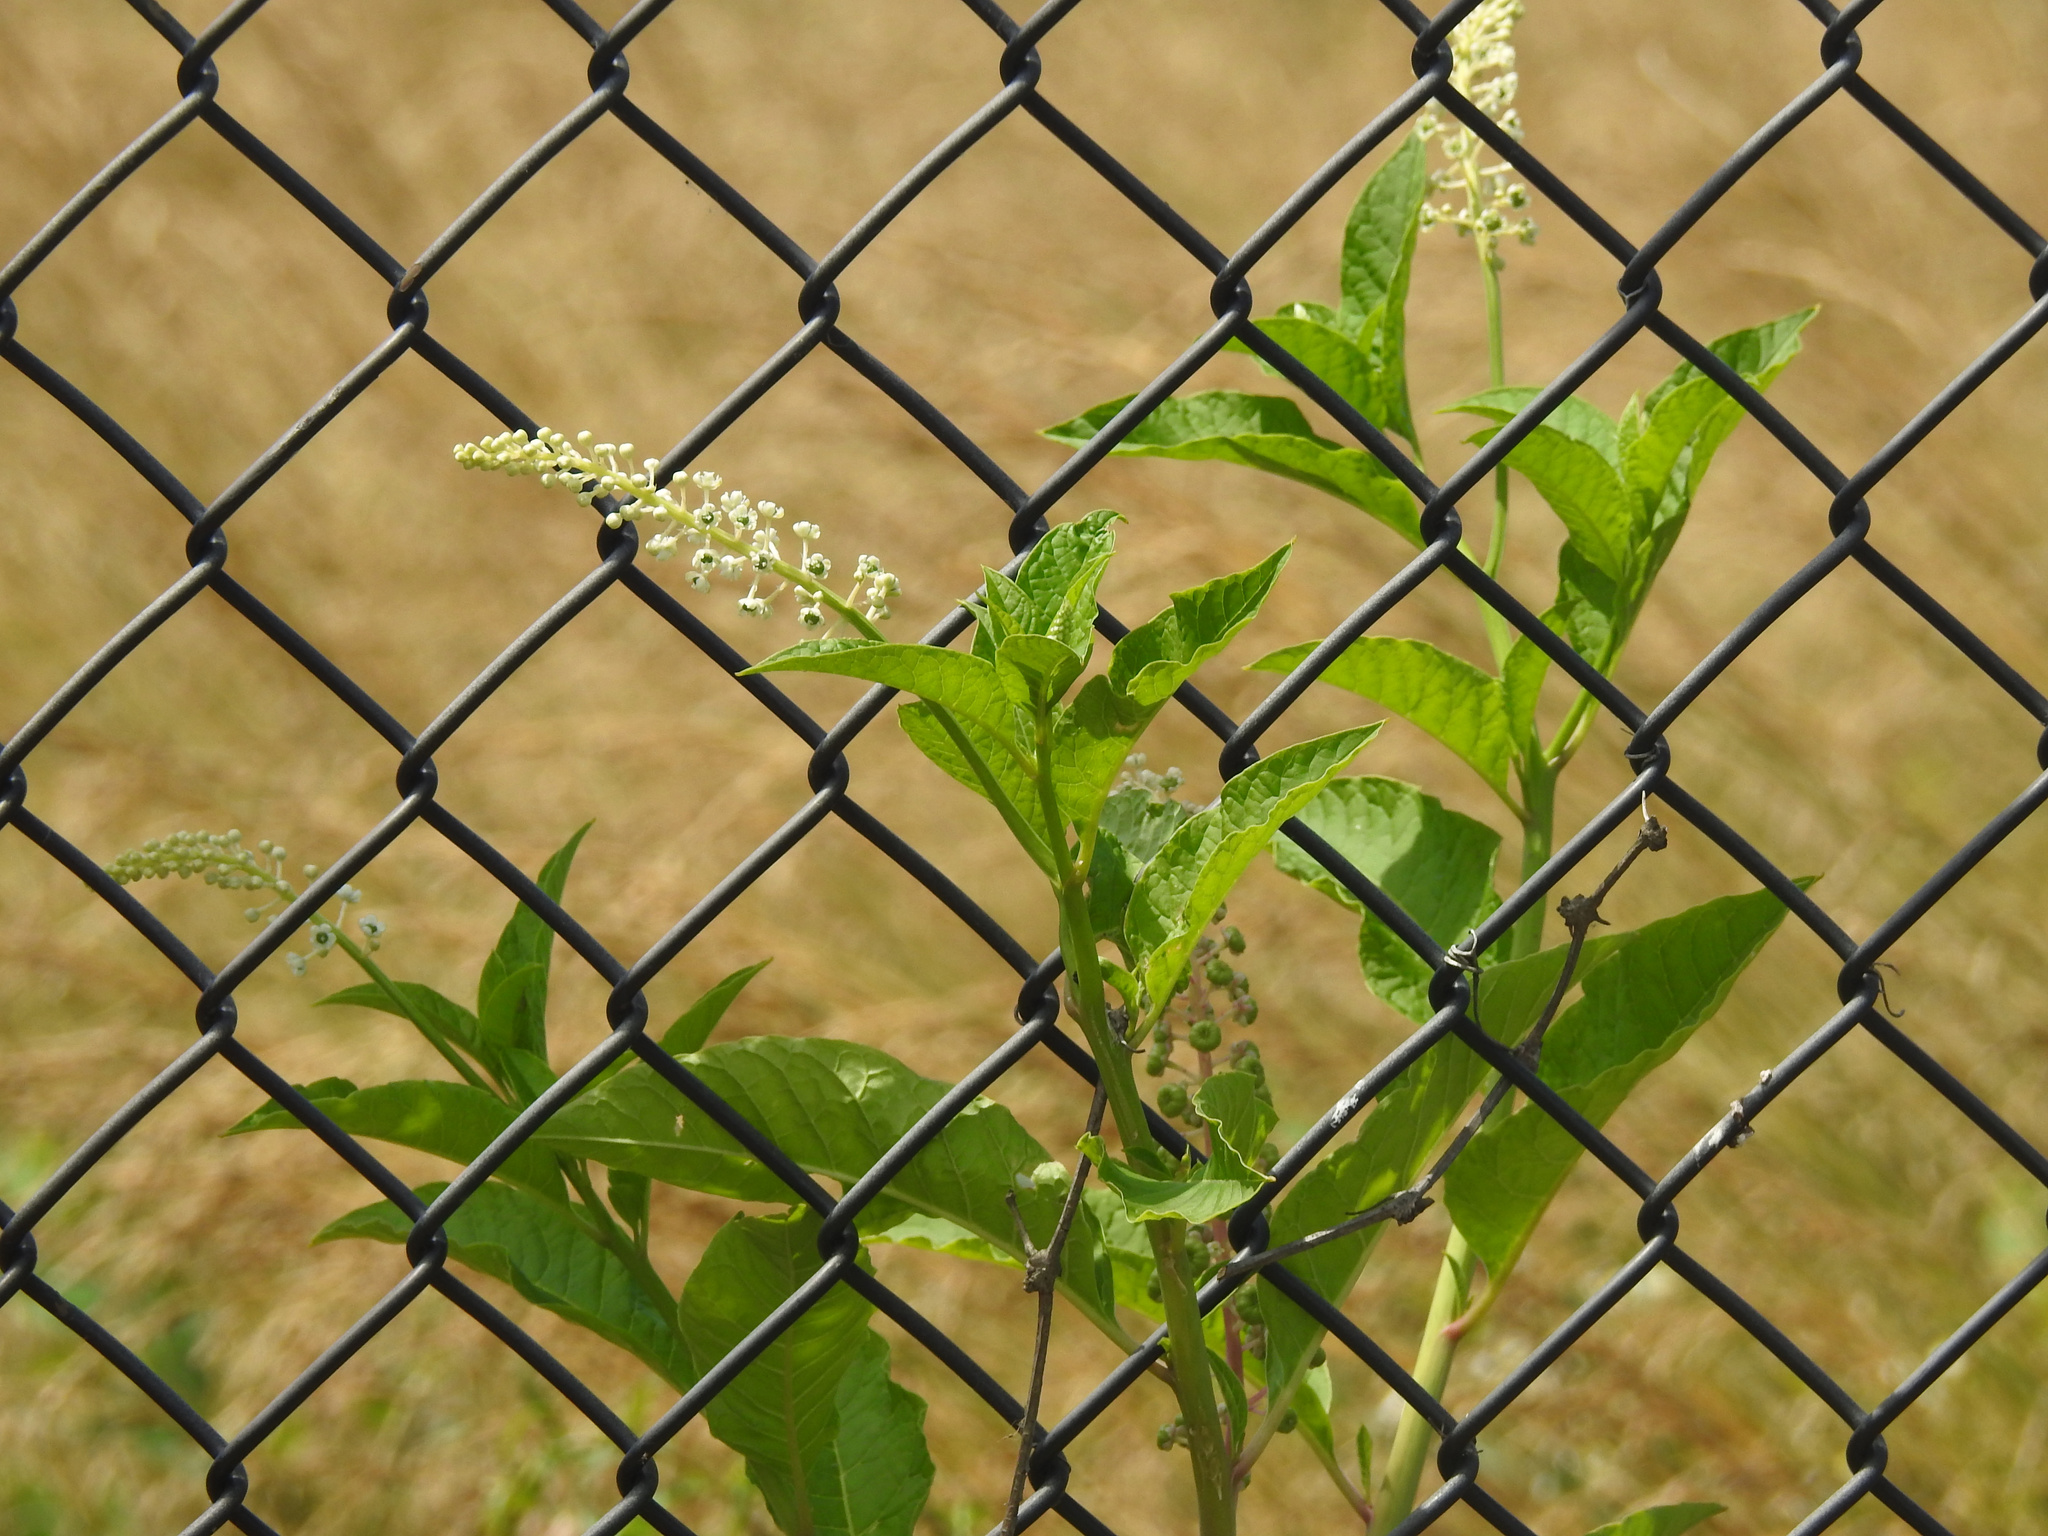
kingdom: Plantae
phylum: Tracheophyta
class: Magnoliopsida
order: Caryophyllales
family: Phytolaccaceae
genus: Phytolacca
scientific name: Phytolacca americana
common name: American pokeweed
